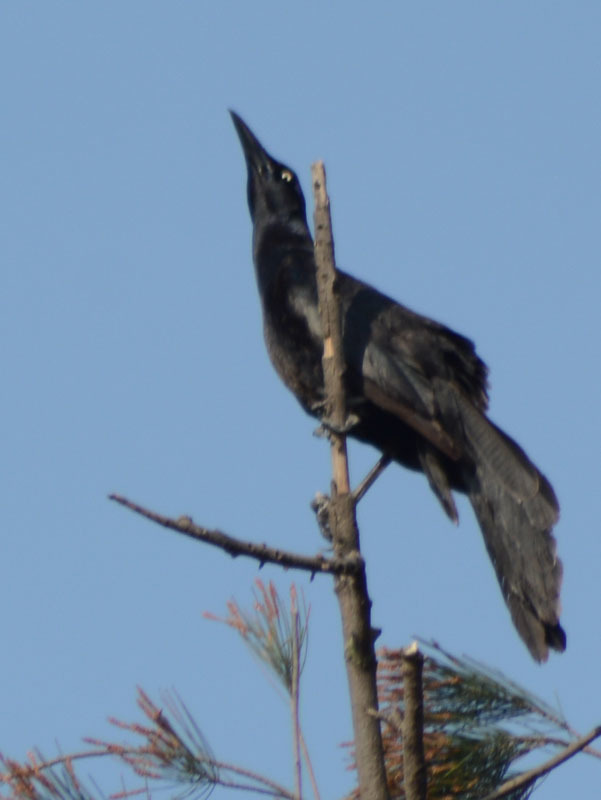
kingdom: Animalia
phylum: Chordata
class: Aves
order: Passeriformes
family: Icteridae
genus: Quiscalus
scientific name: Quiscalus mexicanus
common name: Great-tailed grackle
